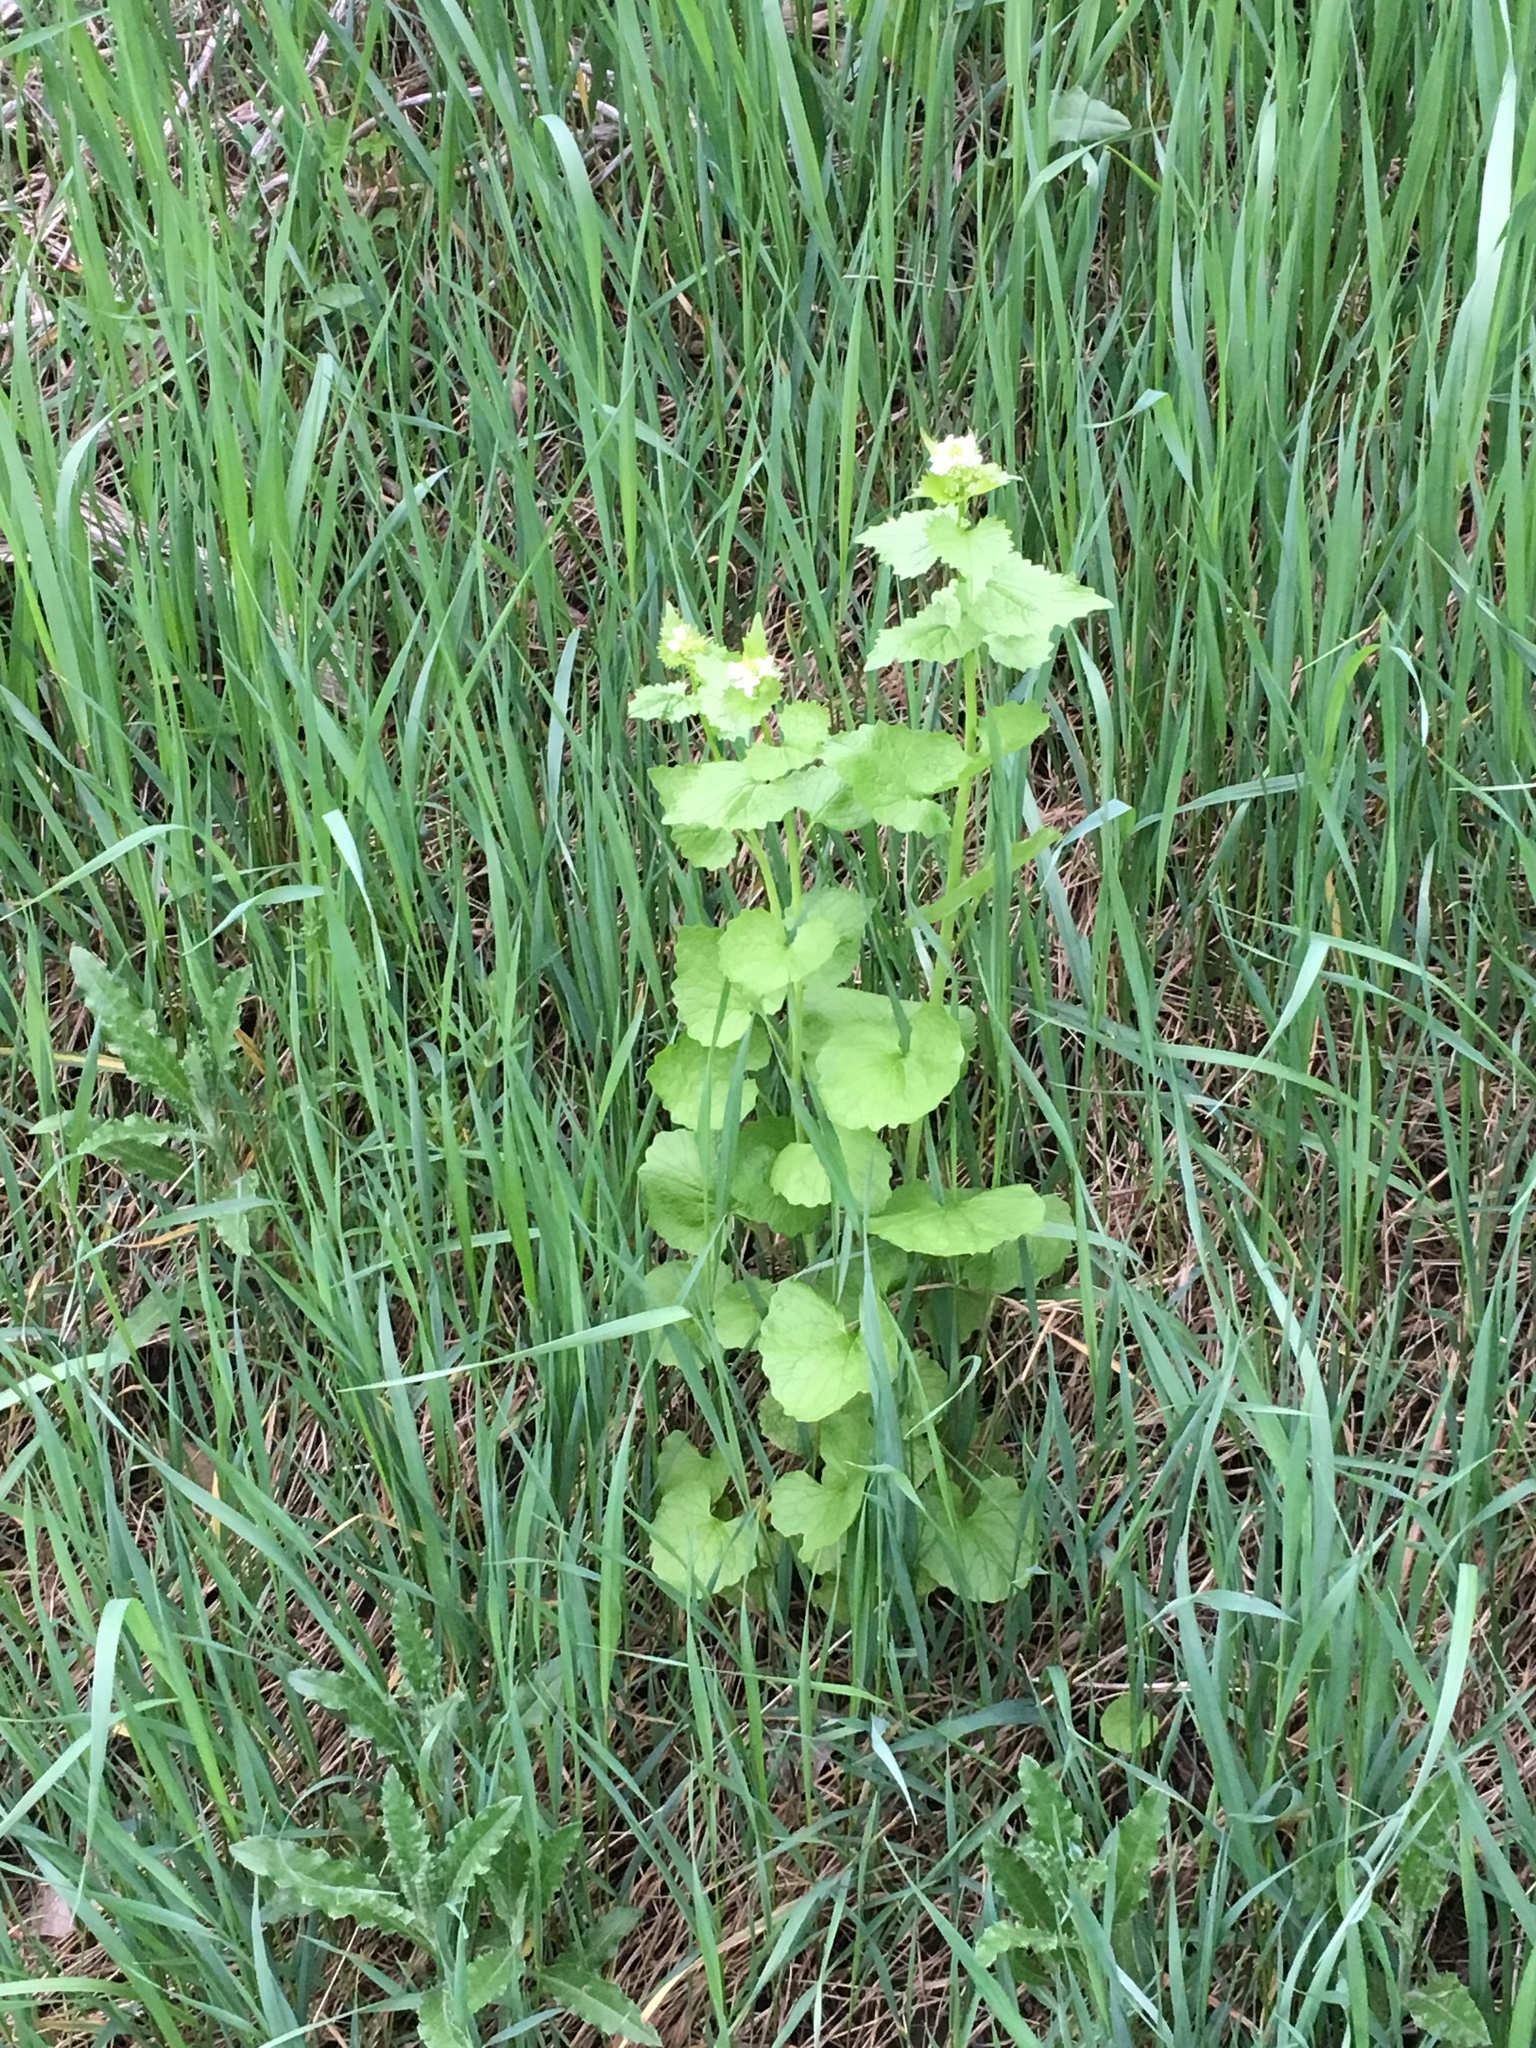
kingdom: Plantae
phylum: Tracheophyta
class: Magnoliopsida
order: Brassicales
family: Brassicaceae
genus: Alliaria
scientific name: Alliaria petiolata
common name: Garlic mustard
